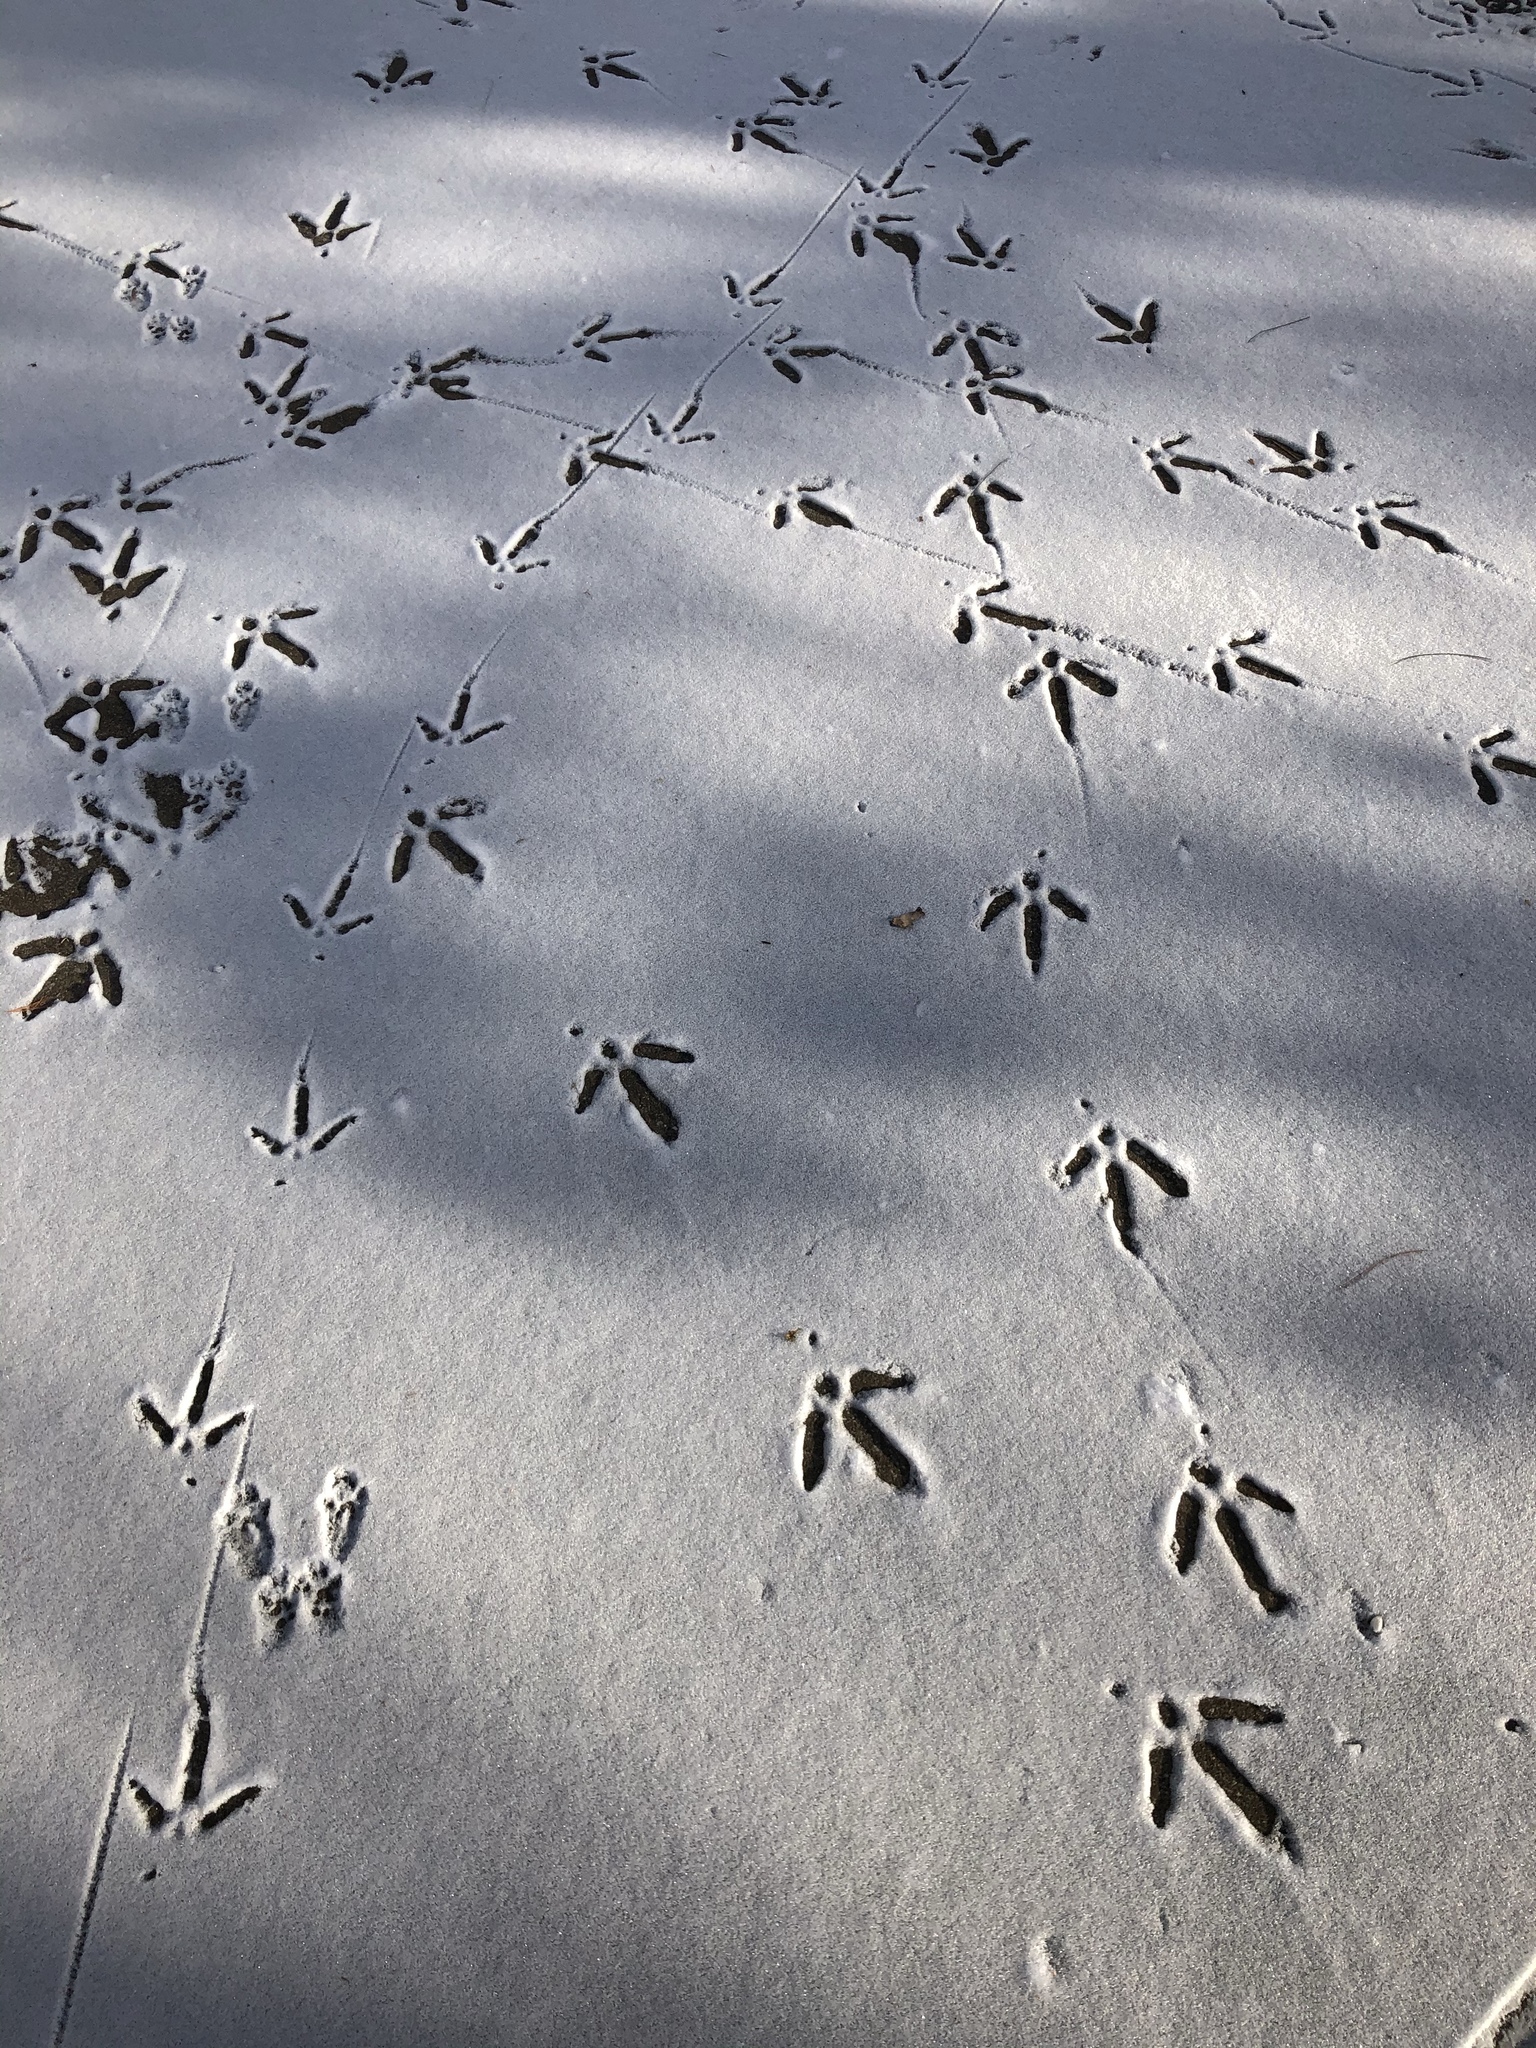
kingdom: Animalia
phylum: Chordata
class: Aves
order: Galliformes
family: Phasianidae
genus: Meleagris
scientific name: Meleagris gallopavo
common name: Wild turkey
